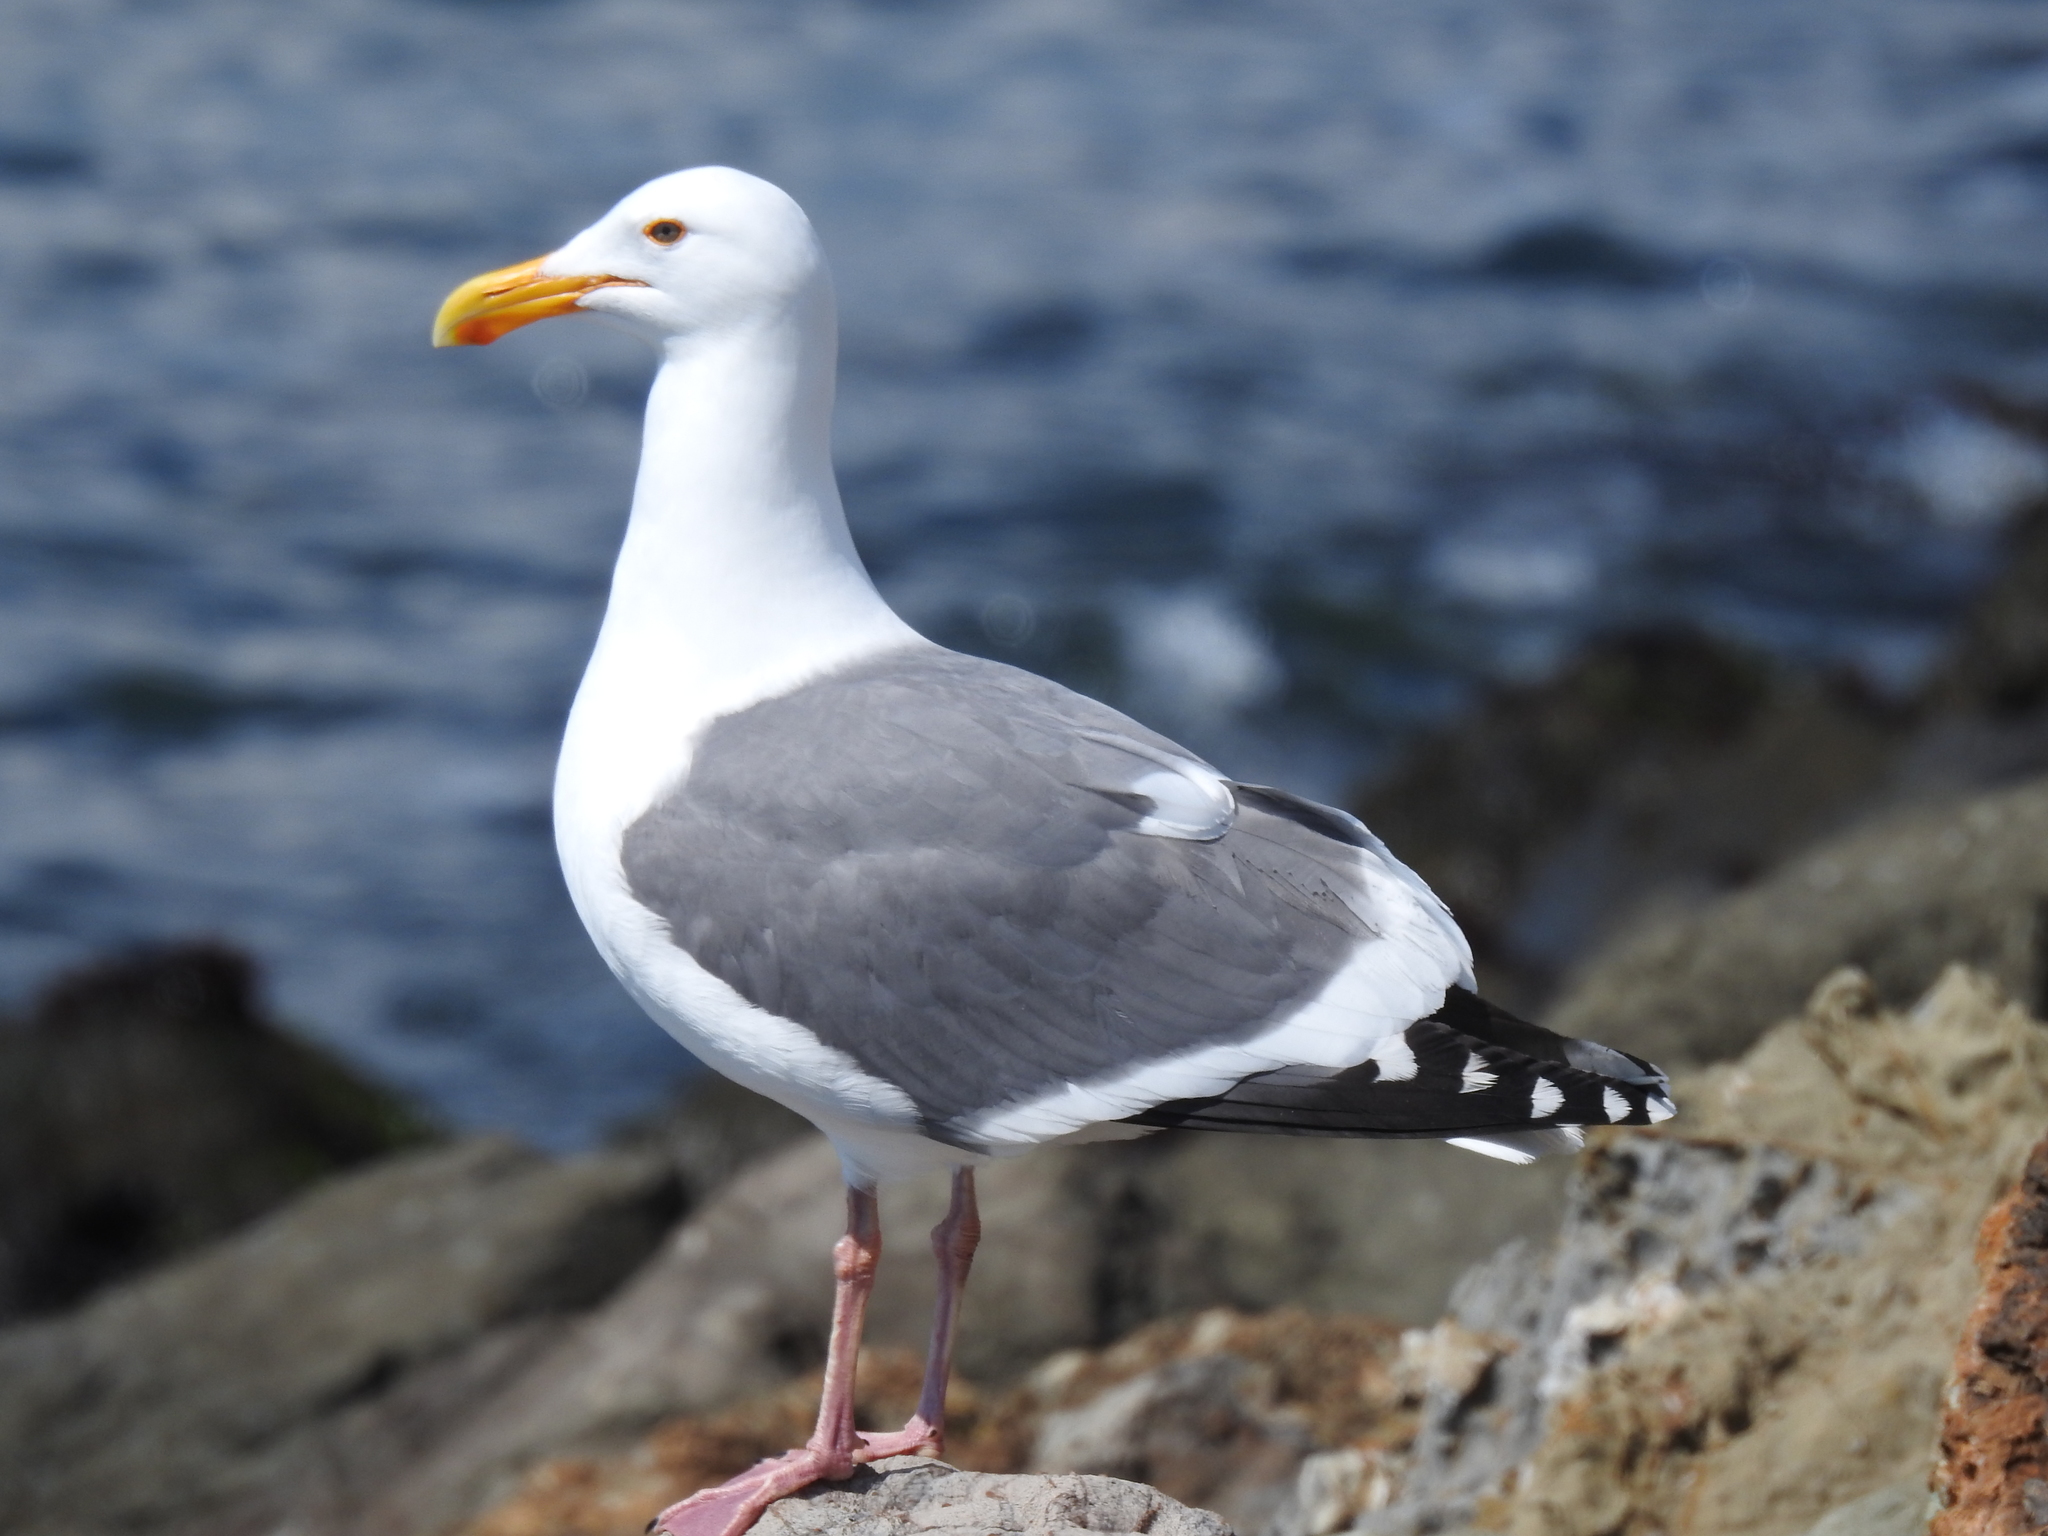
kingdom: Animalia
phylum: Chordata
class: Aves
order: Charadriiformes
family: Laridae
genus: Larus
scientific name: Larus occidentalis
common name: Western gull
